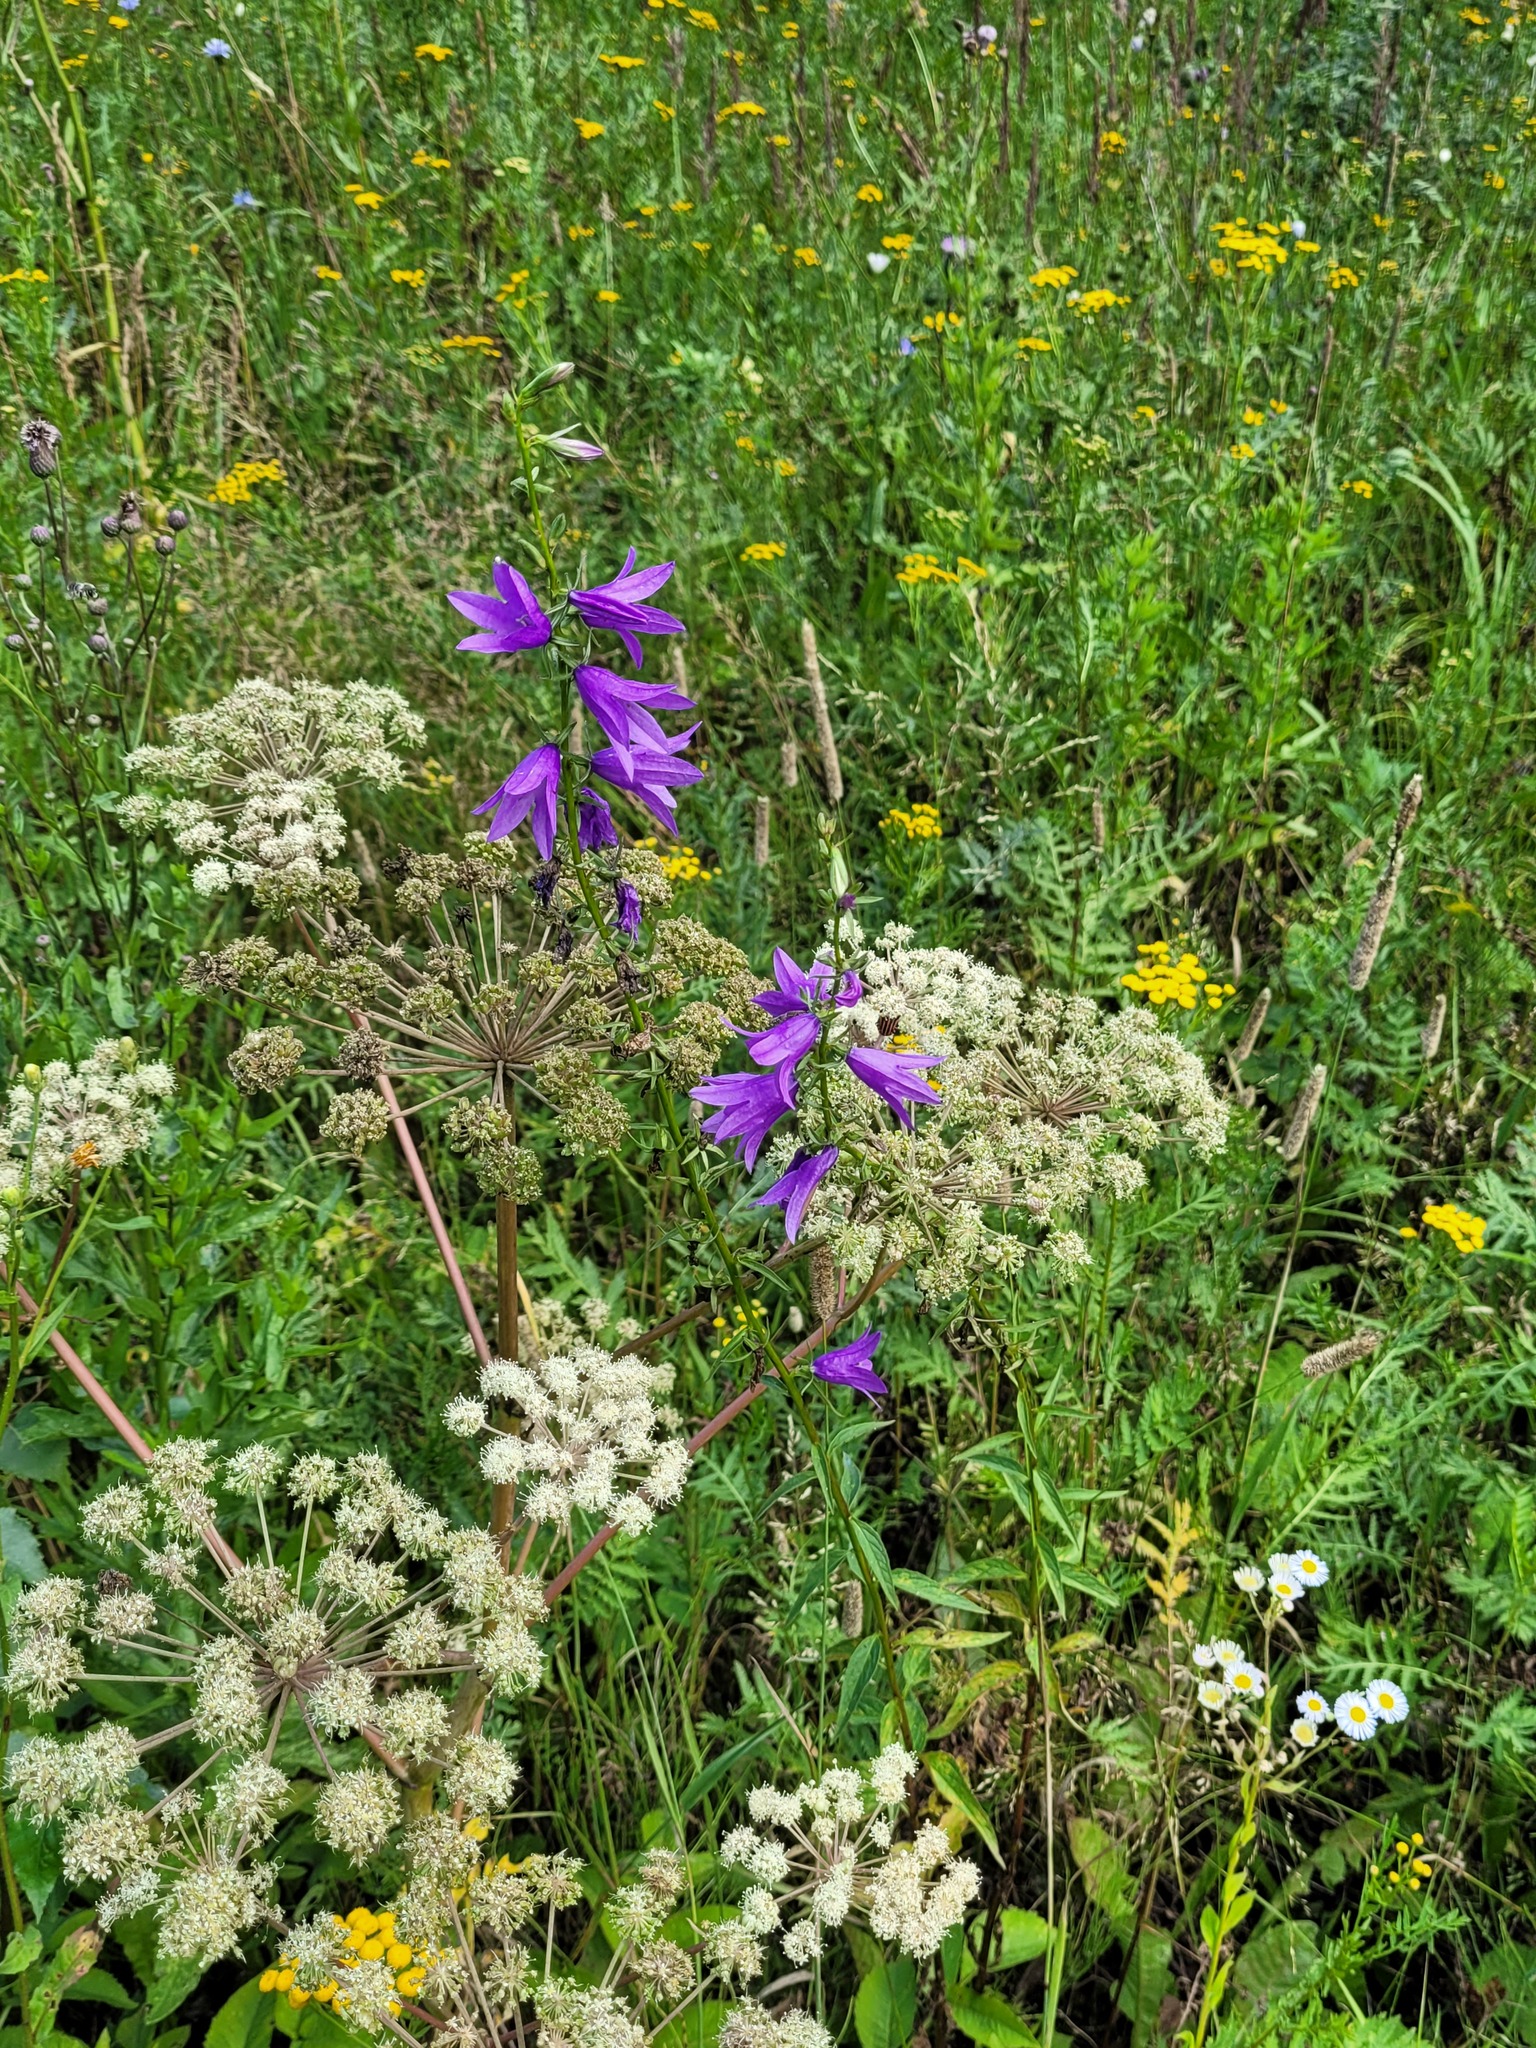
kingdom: Plantae
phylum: Tracheophyta
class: Magnoliopsida
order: Asterales
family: Campanulaceae
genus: Campanula
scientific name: Campanula rapunculoides
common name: Creeping bellflower
